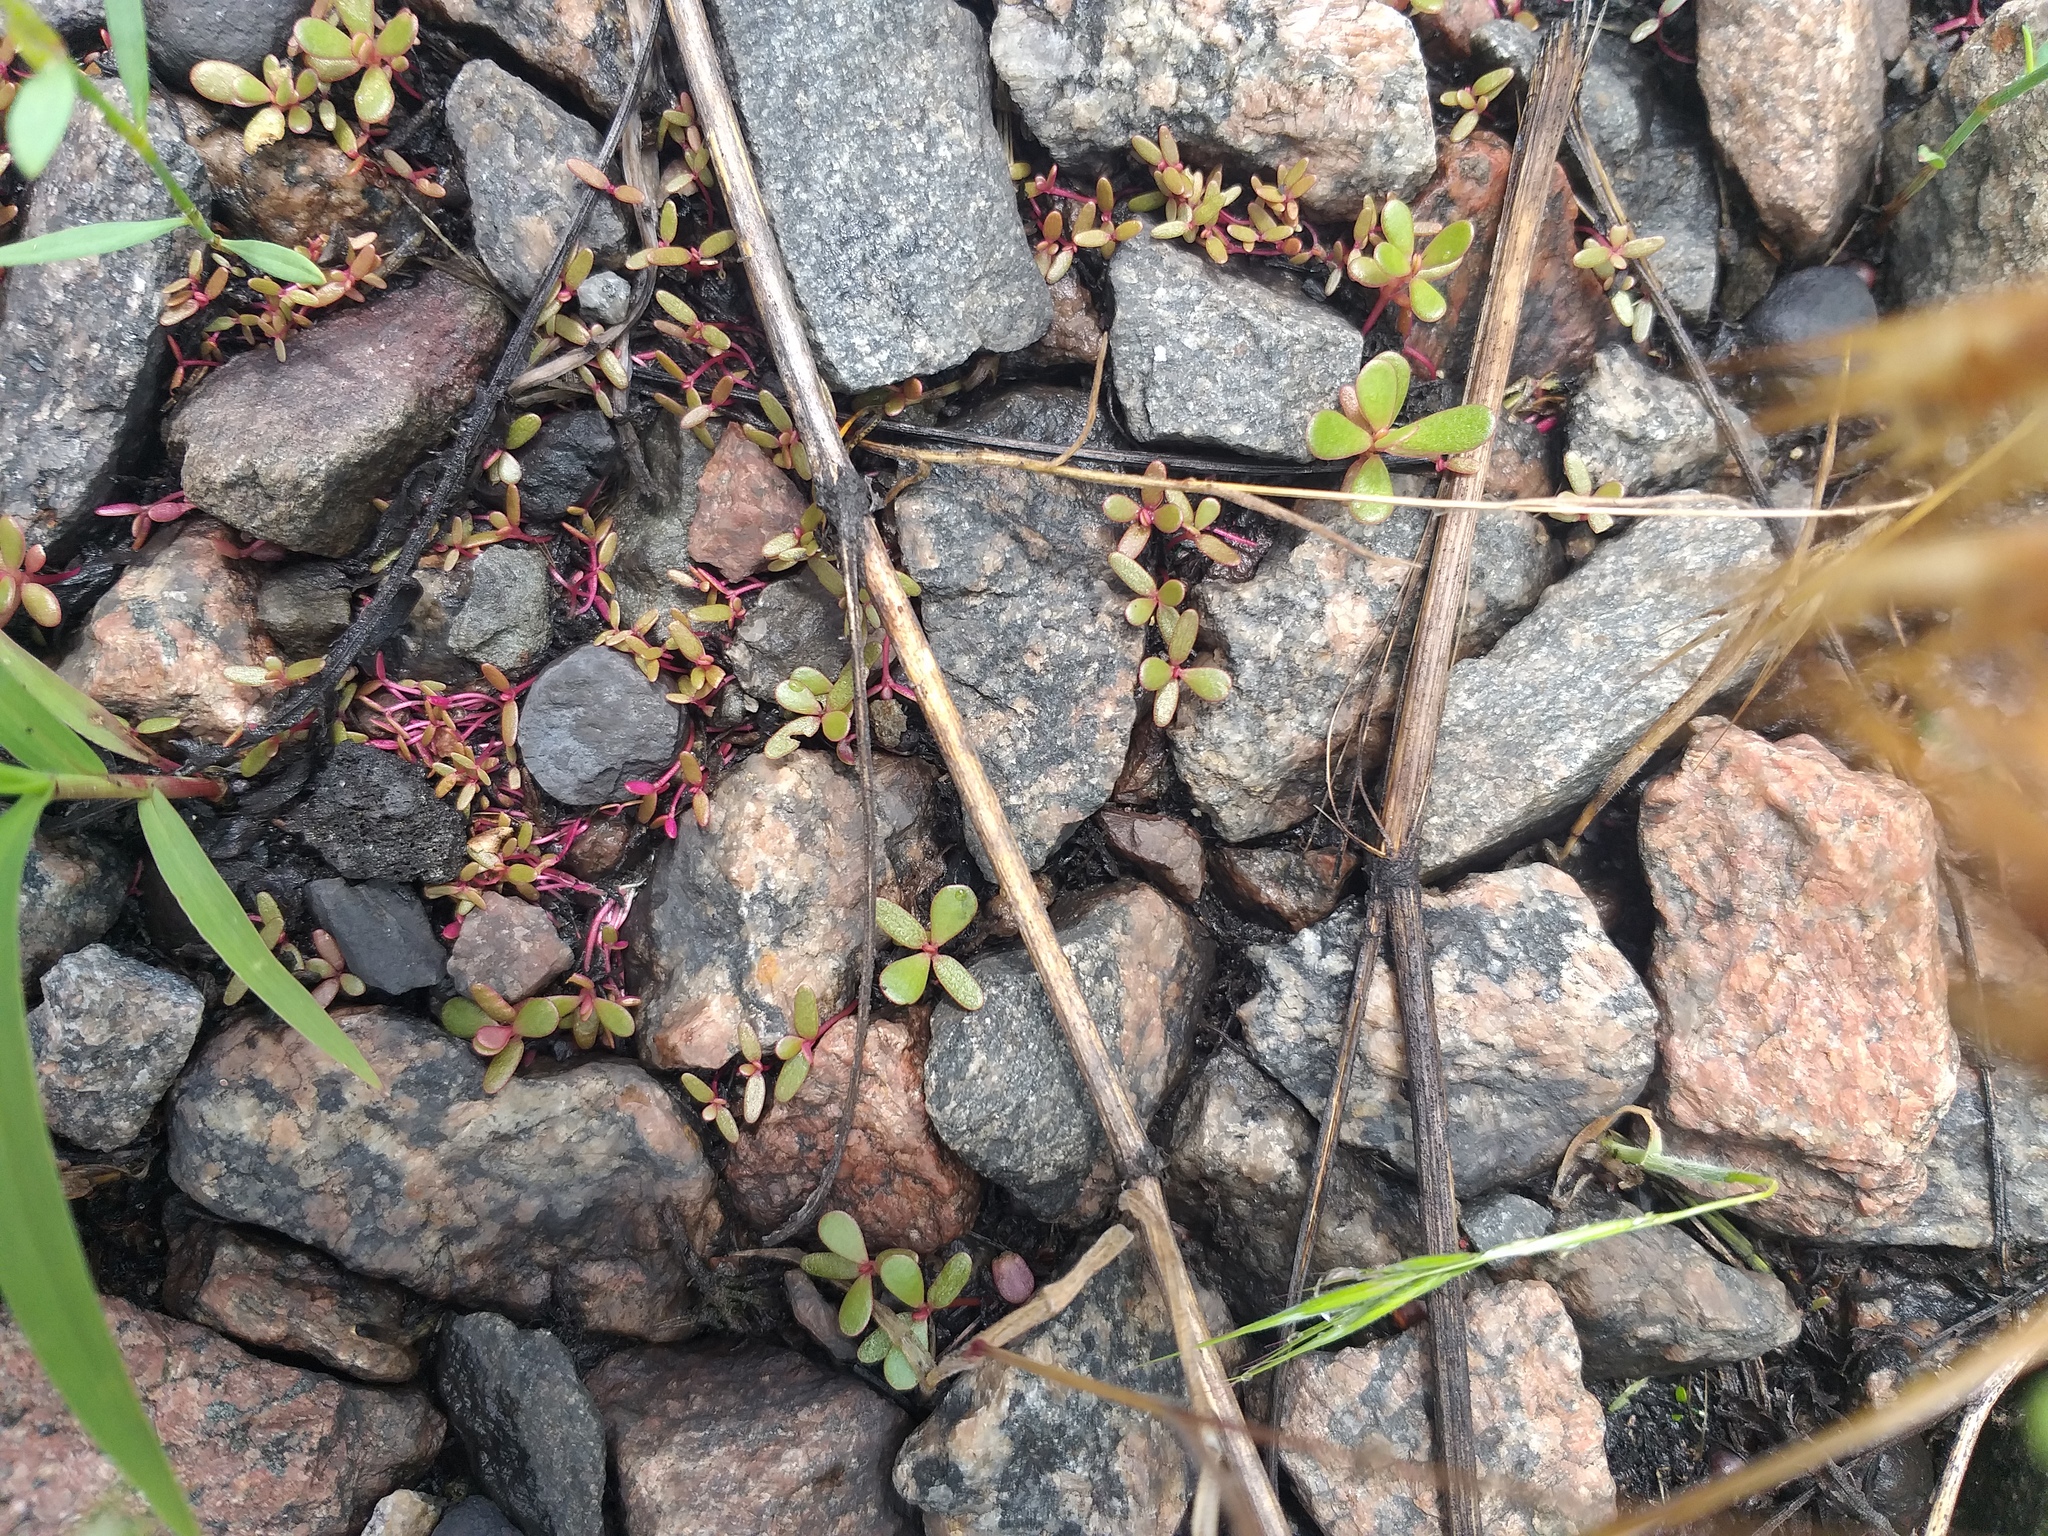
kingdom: Plantae
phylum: Tracheophyta
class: Magnoliopsida
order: Caryophyllales
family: Portulacaceae
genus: Portulaca
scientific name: Portulaca oleracea
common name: Common purslane
